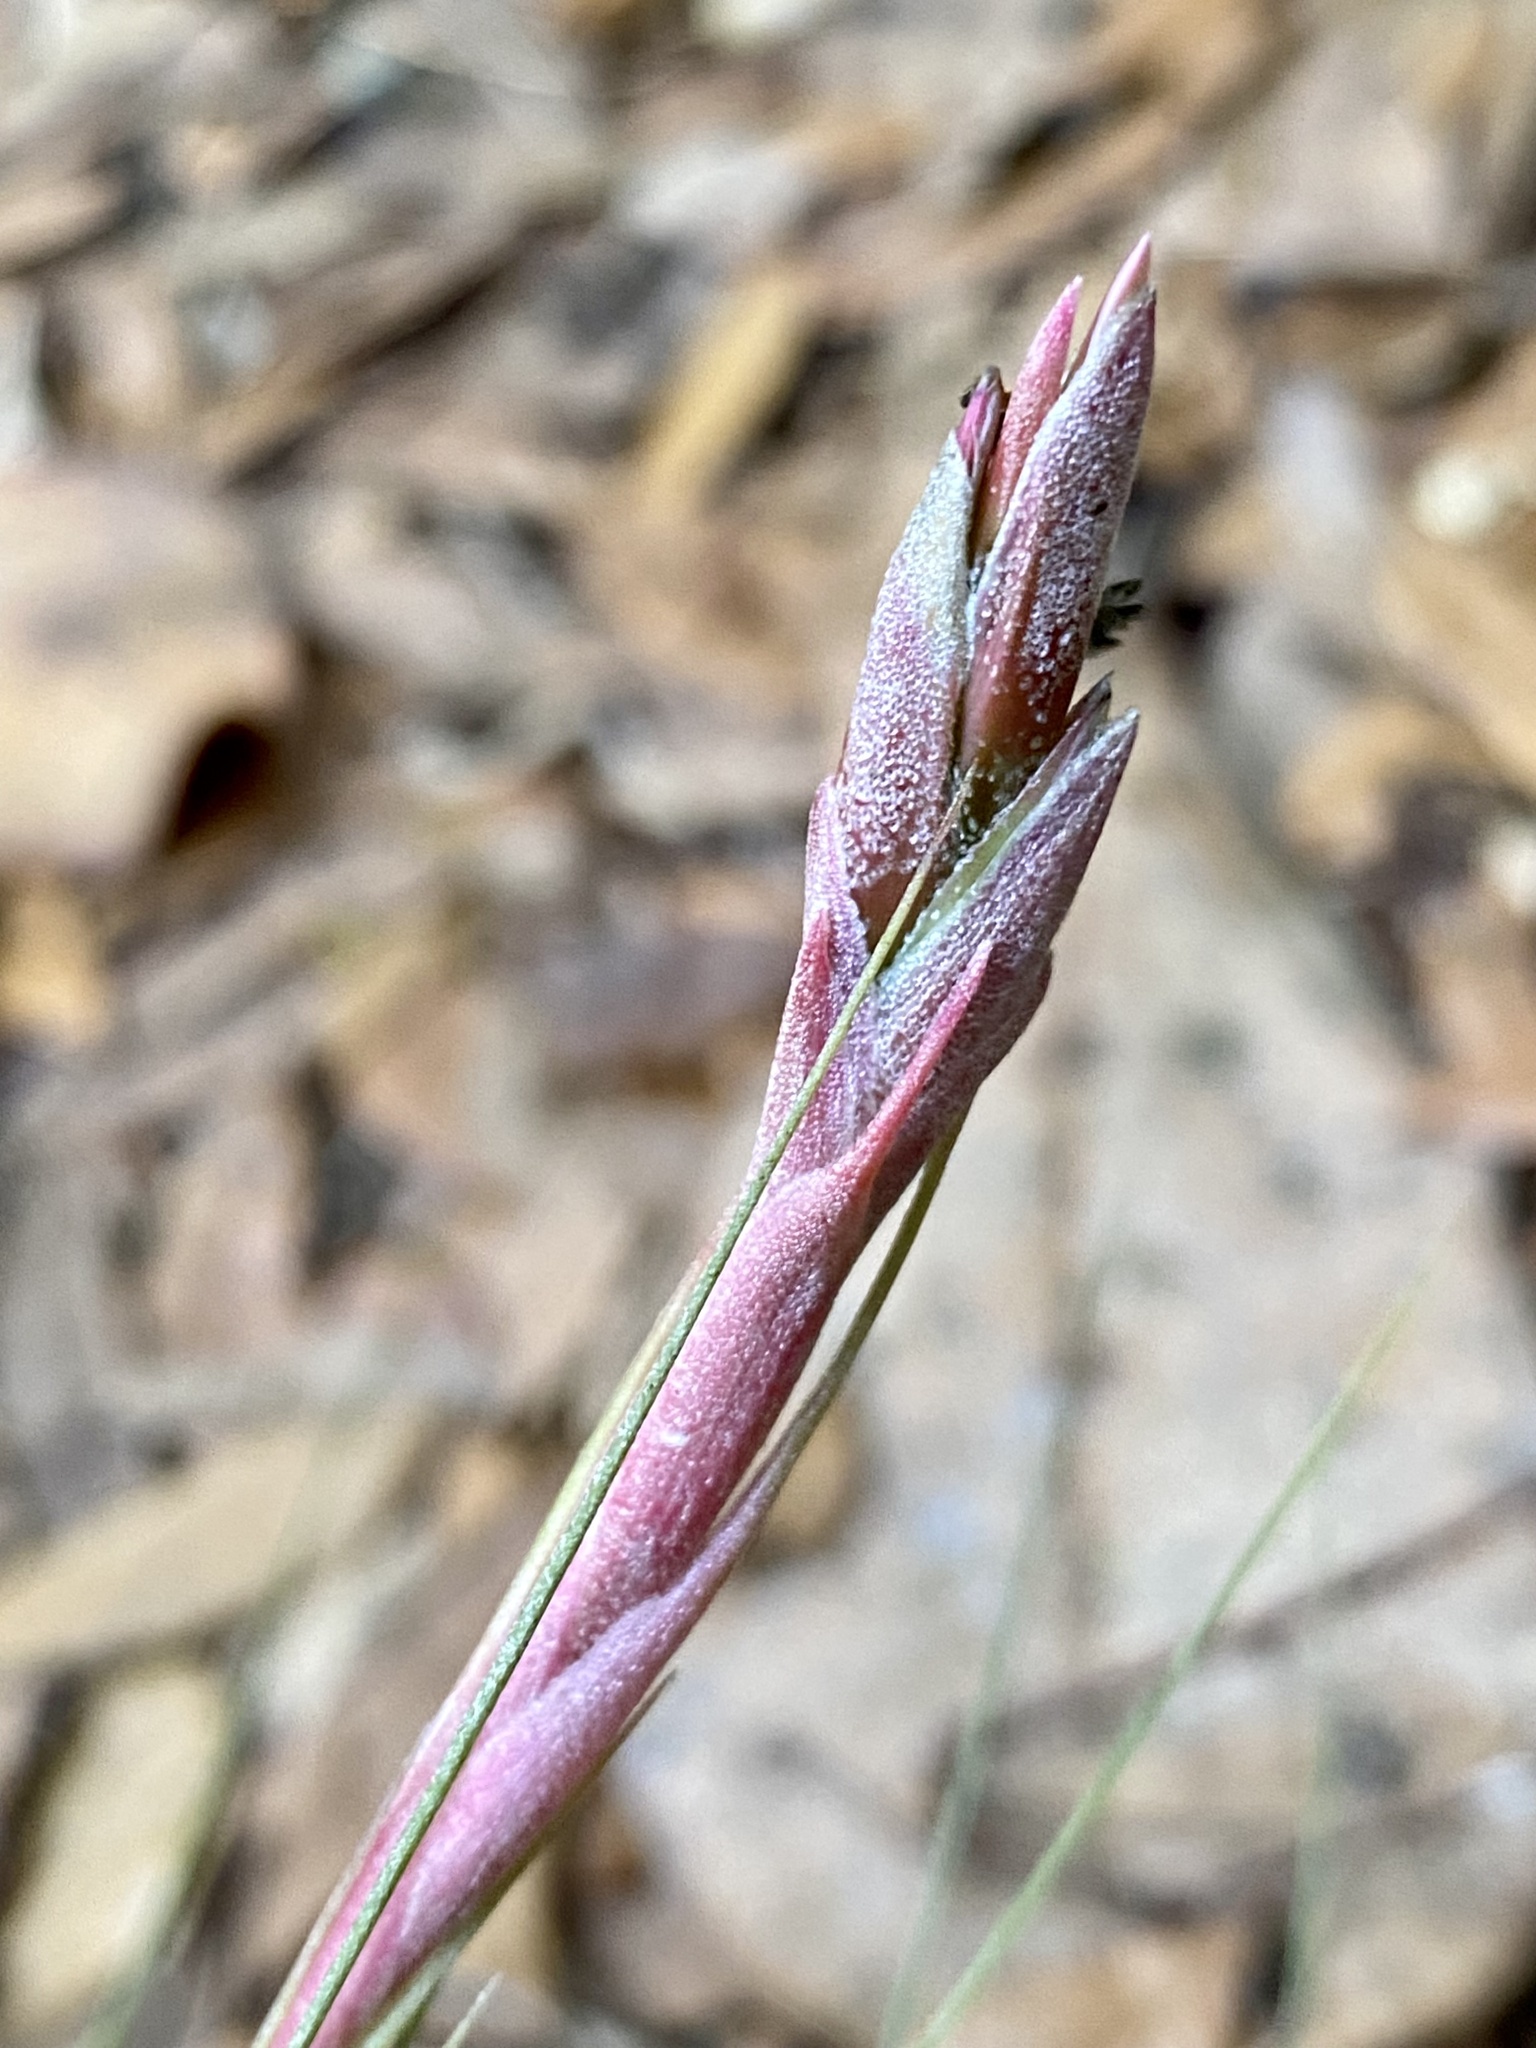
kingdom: Plantae
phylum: Tracheophyta
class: Liliopsida
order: Poales
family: Bromeliaceae
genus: Tillandsia
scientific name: Tillandsia bartramii
